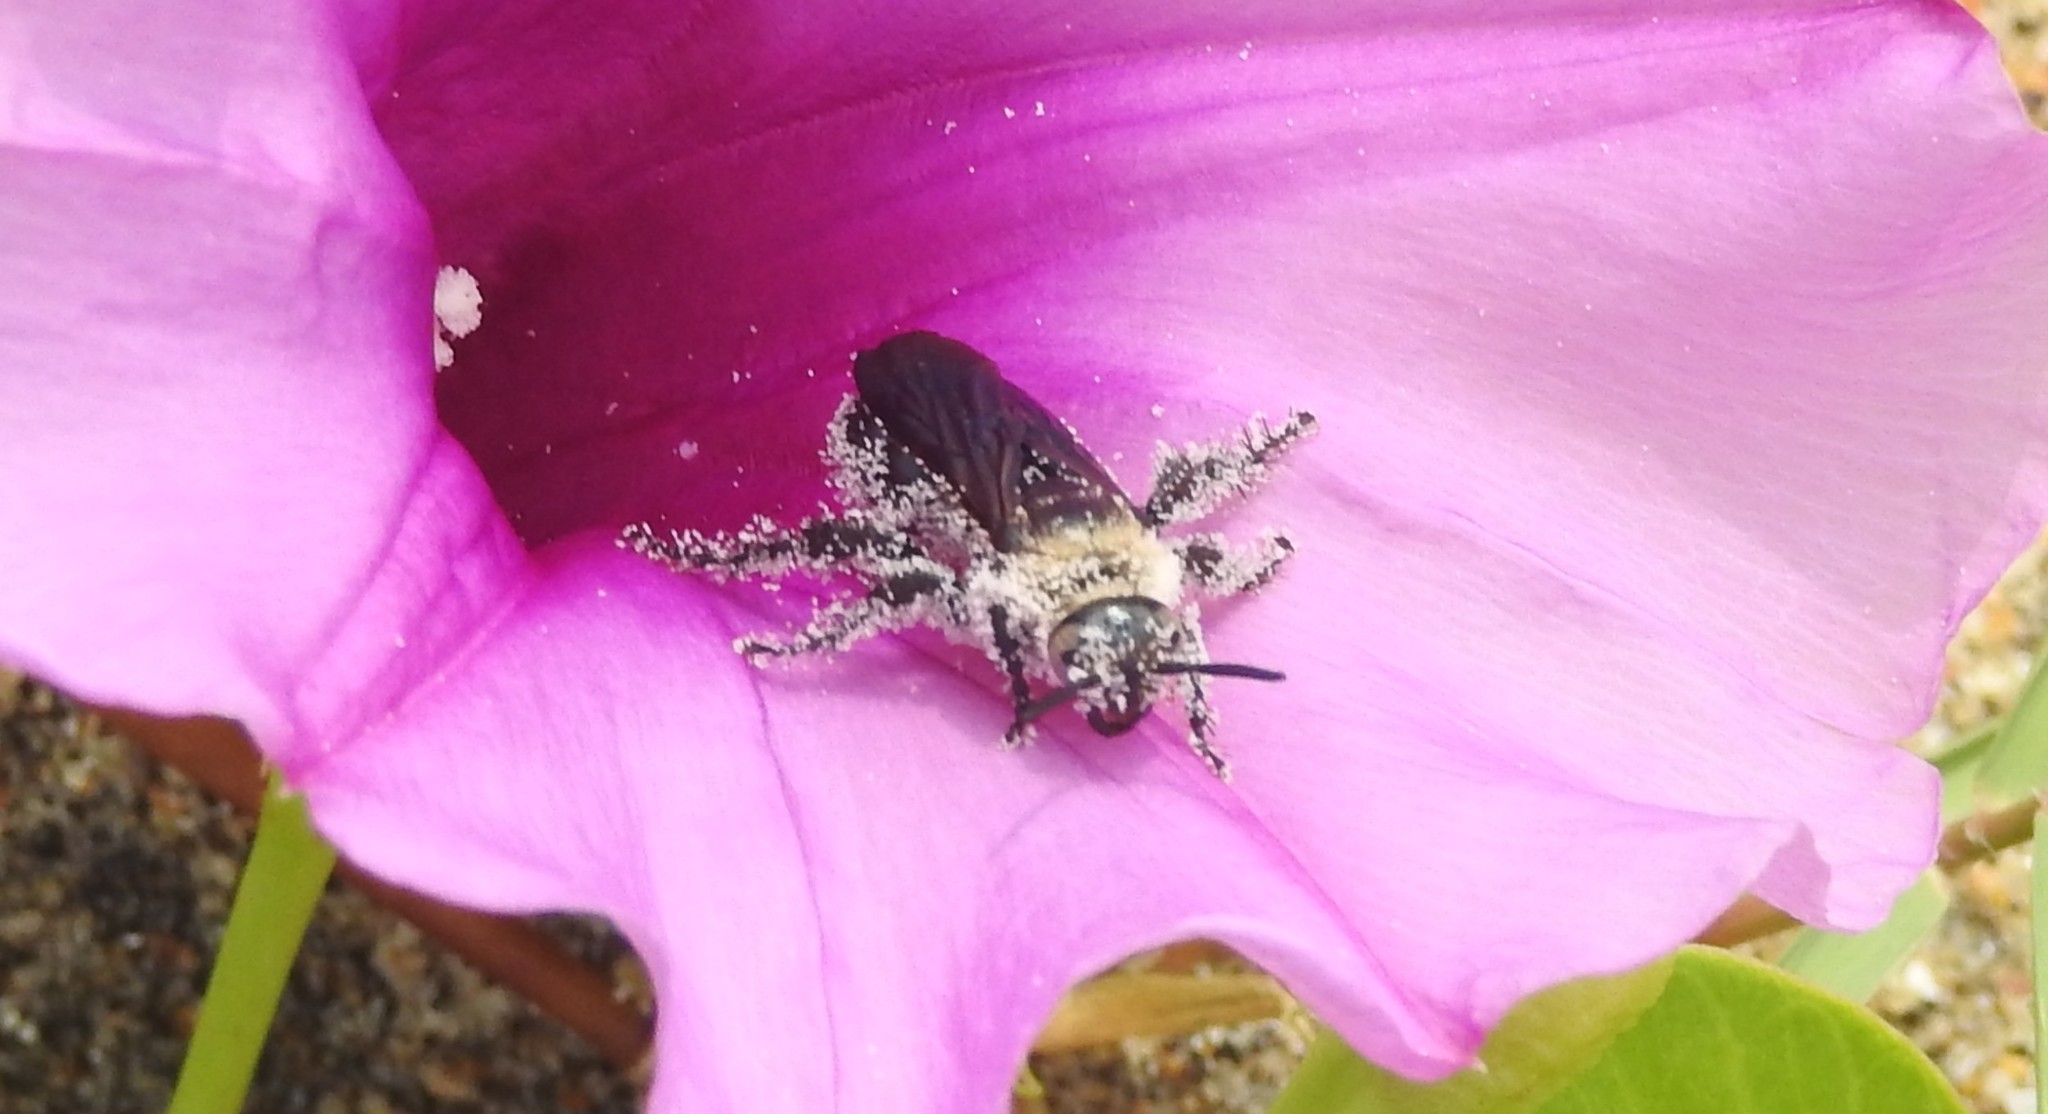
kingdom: Animalia
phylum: Arthropoda
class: Insecta
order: Hymenoptera
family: Scoliidae
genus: Campsomeriella
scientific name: Campsomeriella collaris
